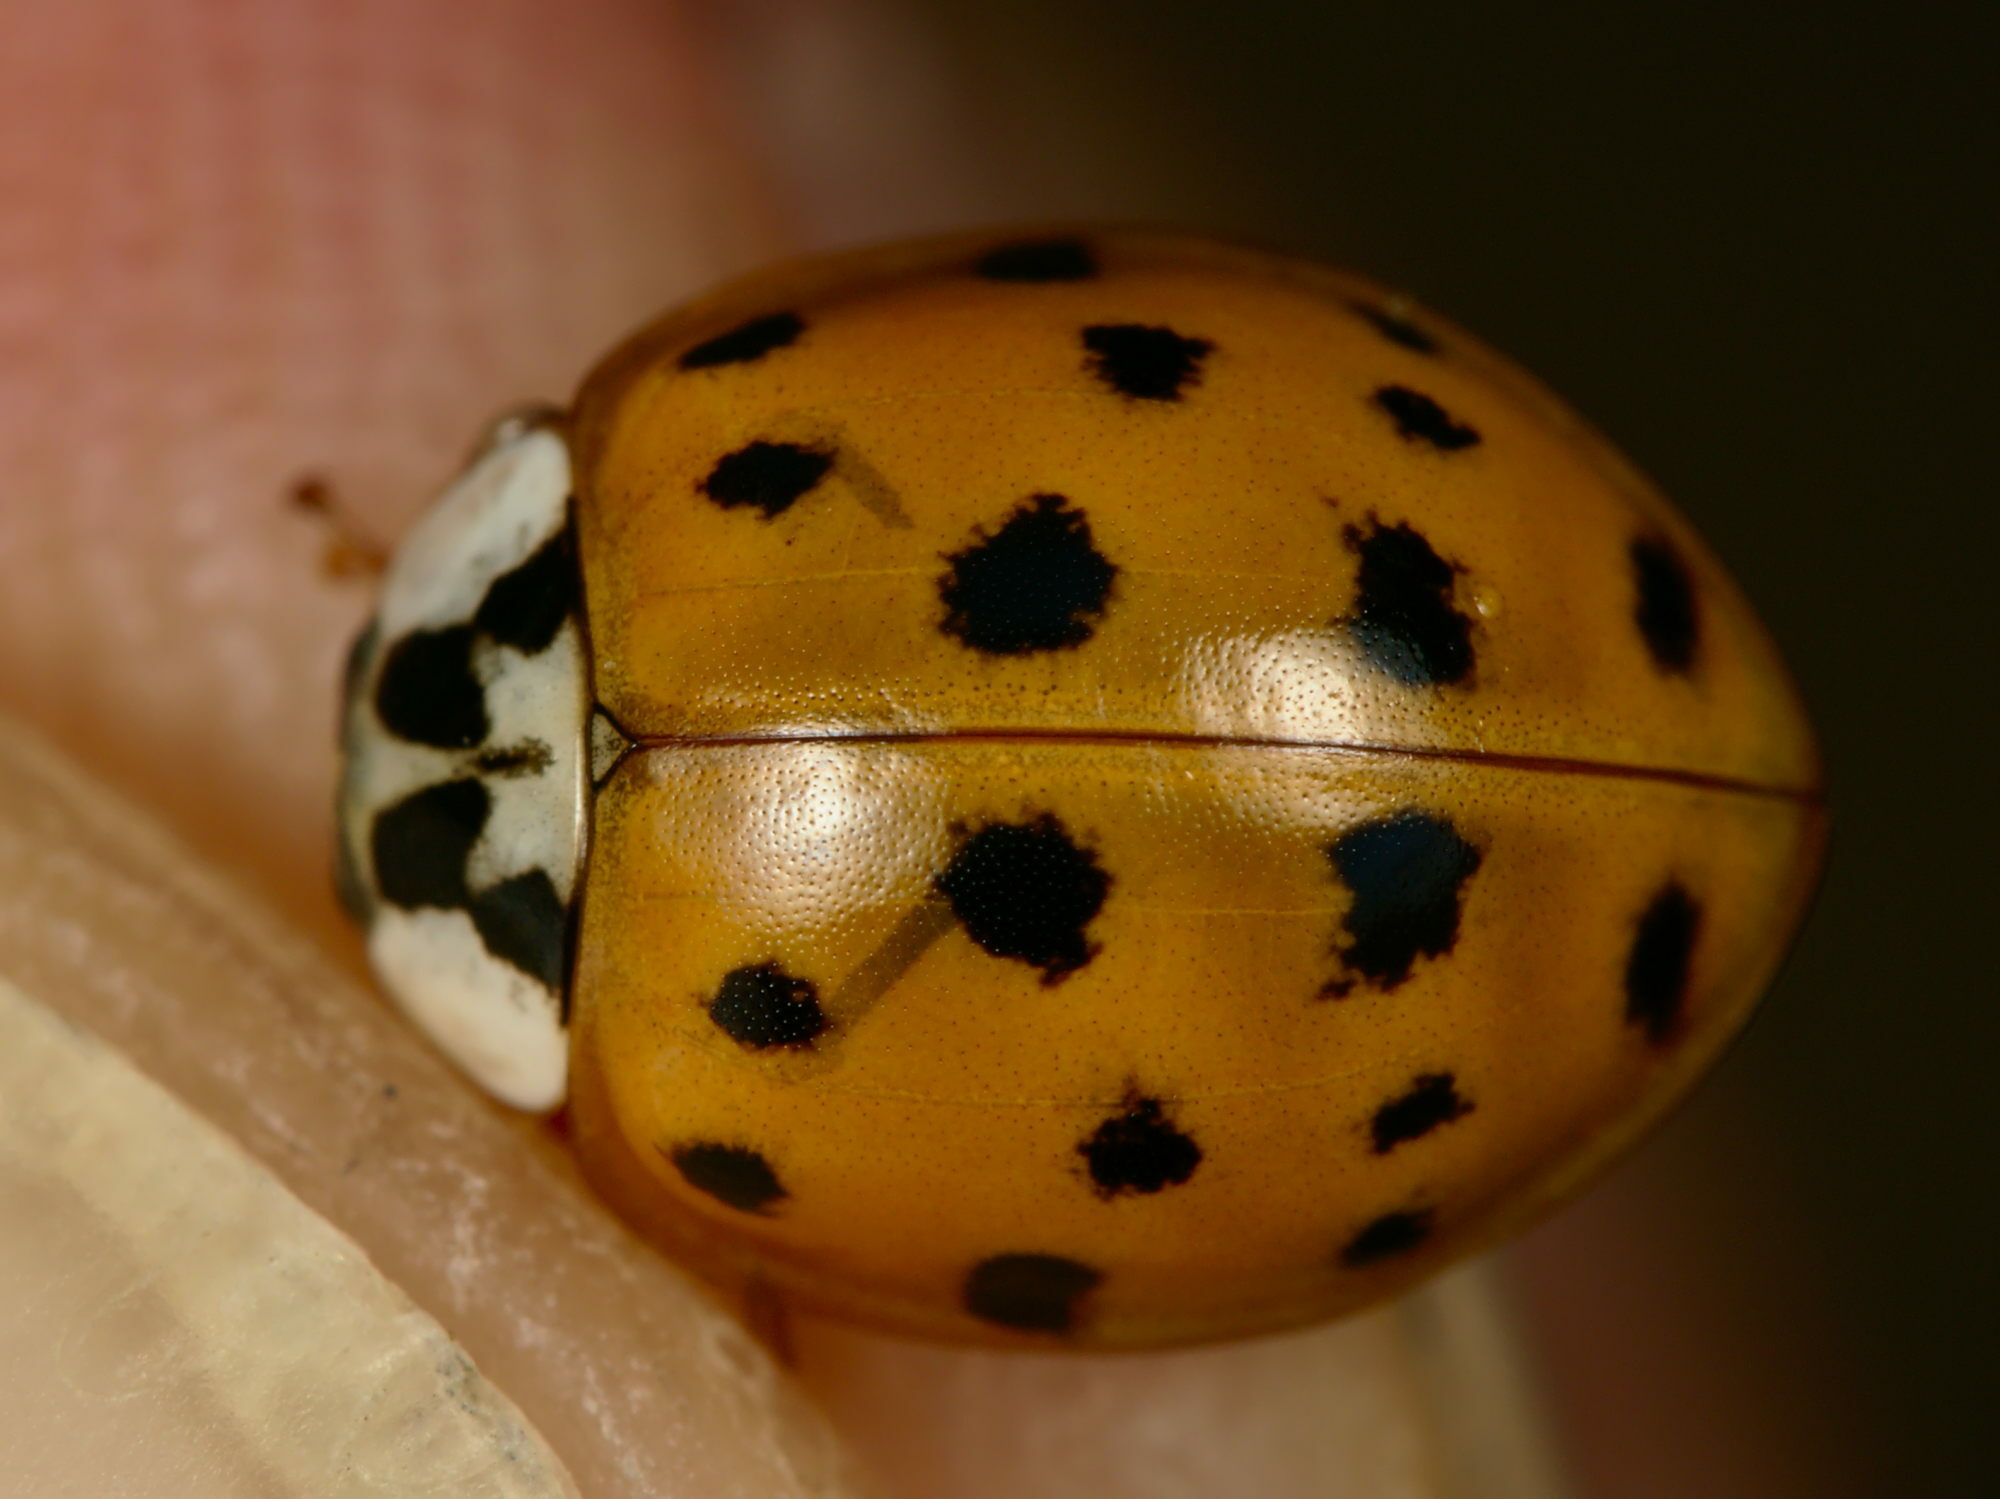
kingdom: Animalia
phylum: Arthropoda
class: Insecta
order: Coleoptera
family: Coccinellidae
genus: Harmonia
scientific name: Harmonia axyridis
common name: Harlequin ladybird
